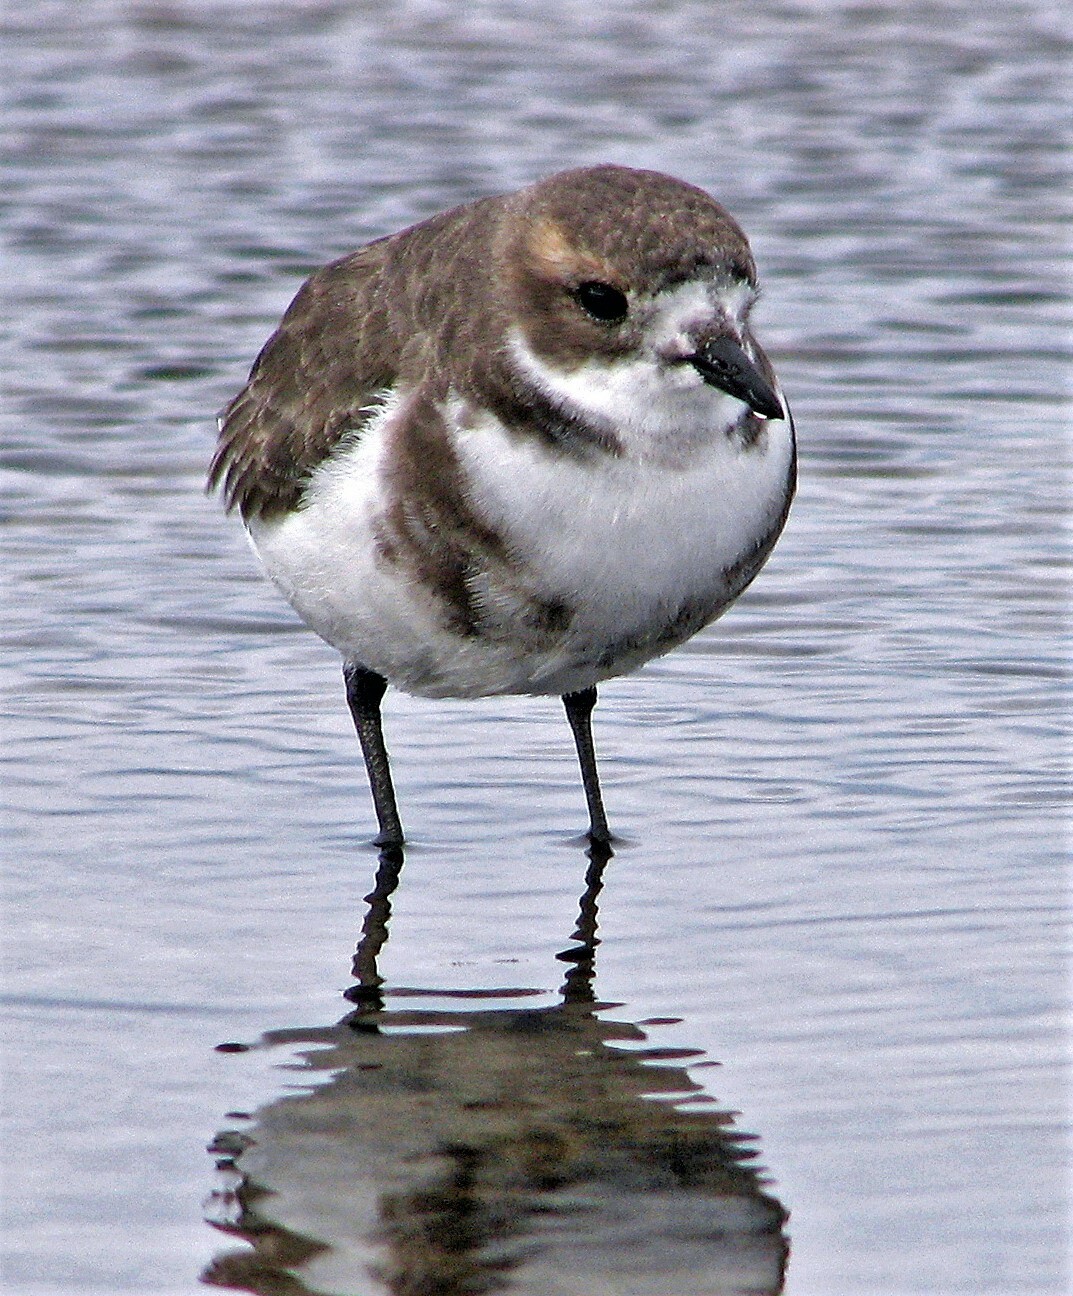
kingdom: Animalia
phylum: Chordata
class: Aves
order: Charadriiformes
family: Charadriidae
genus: Anarhynchus
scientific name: Anarhynchus
